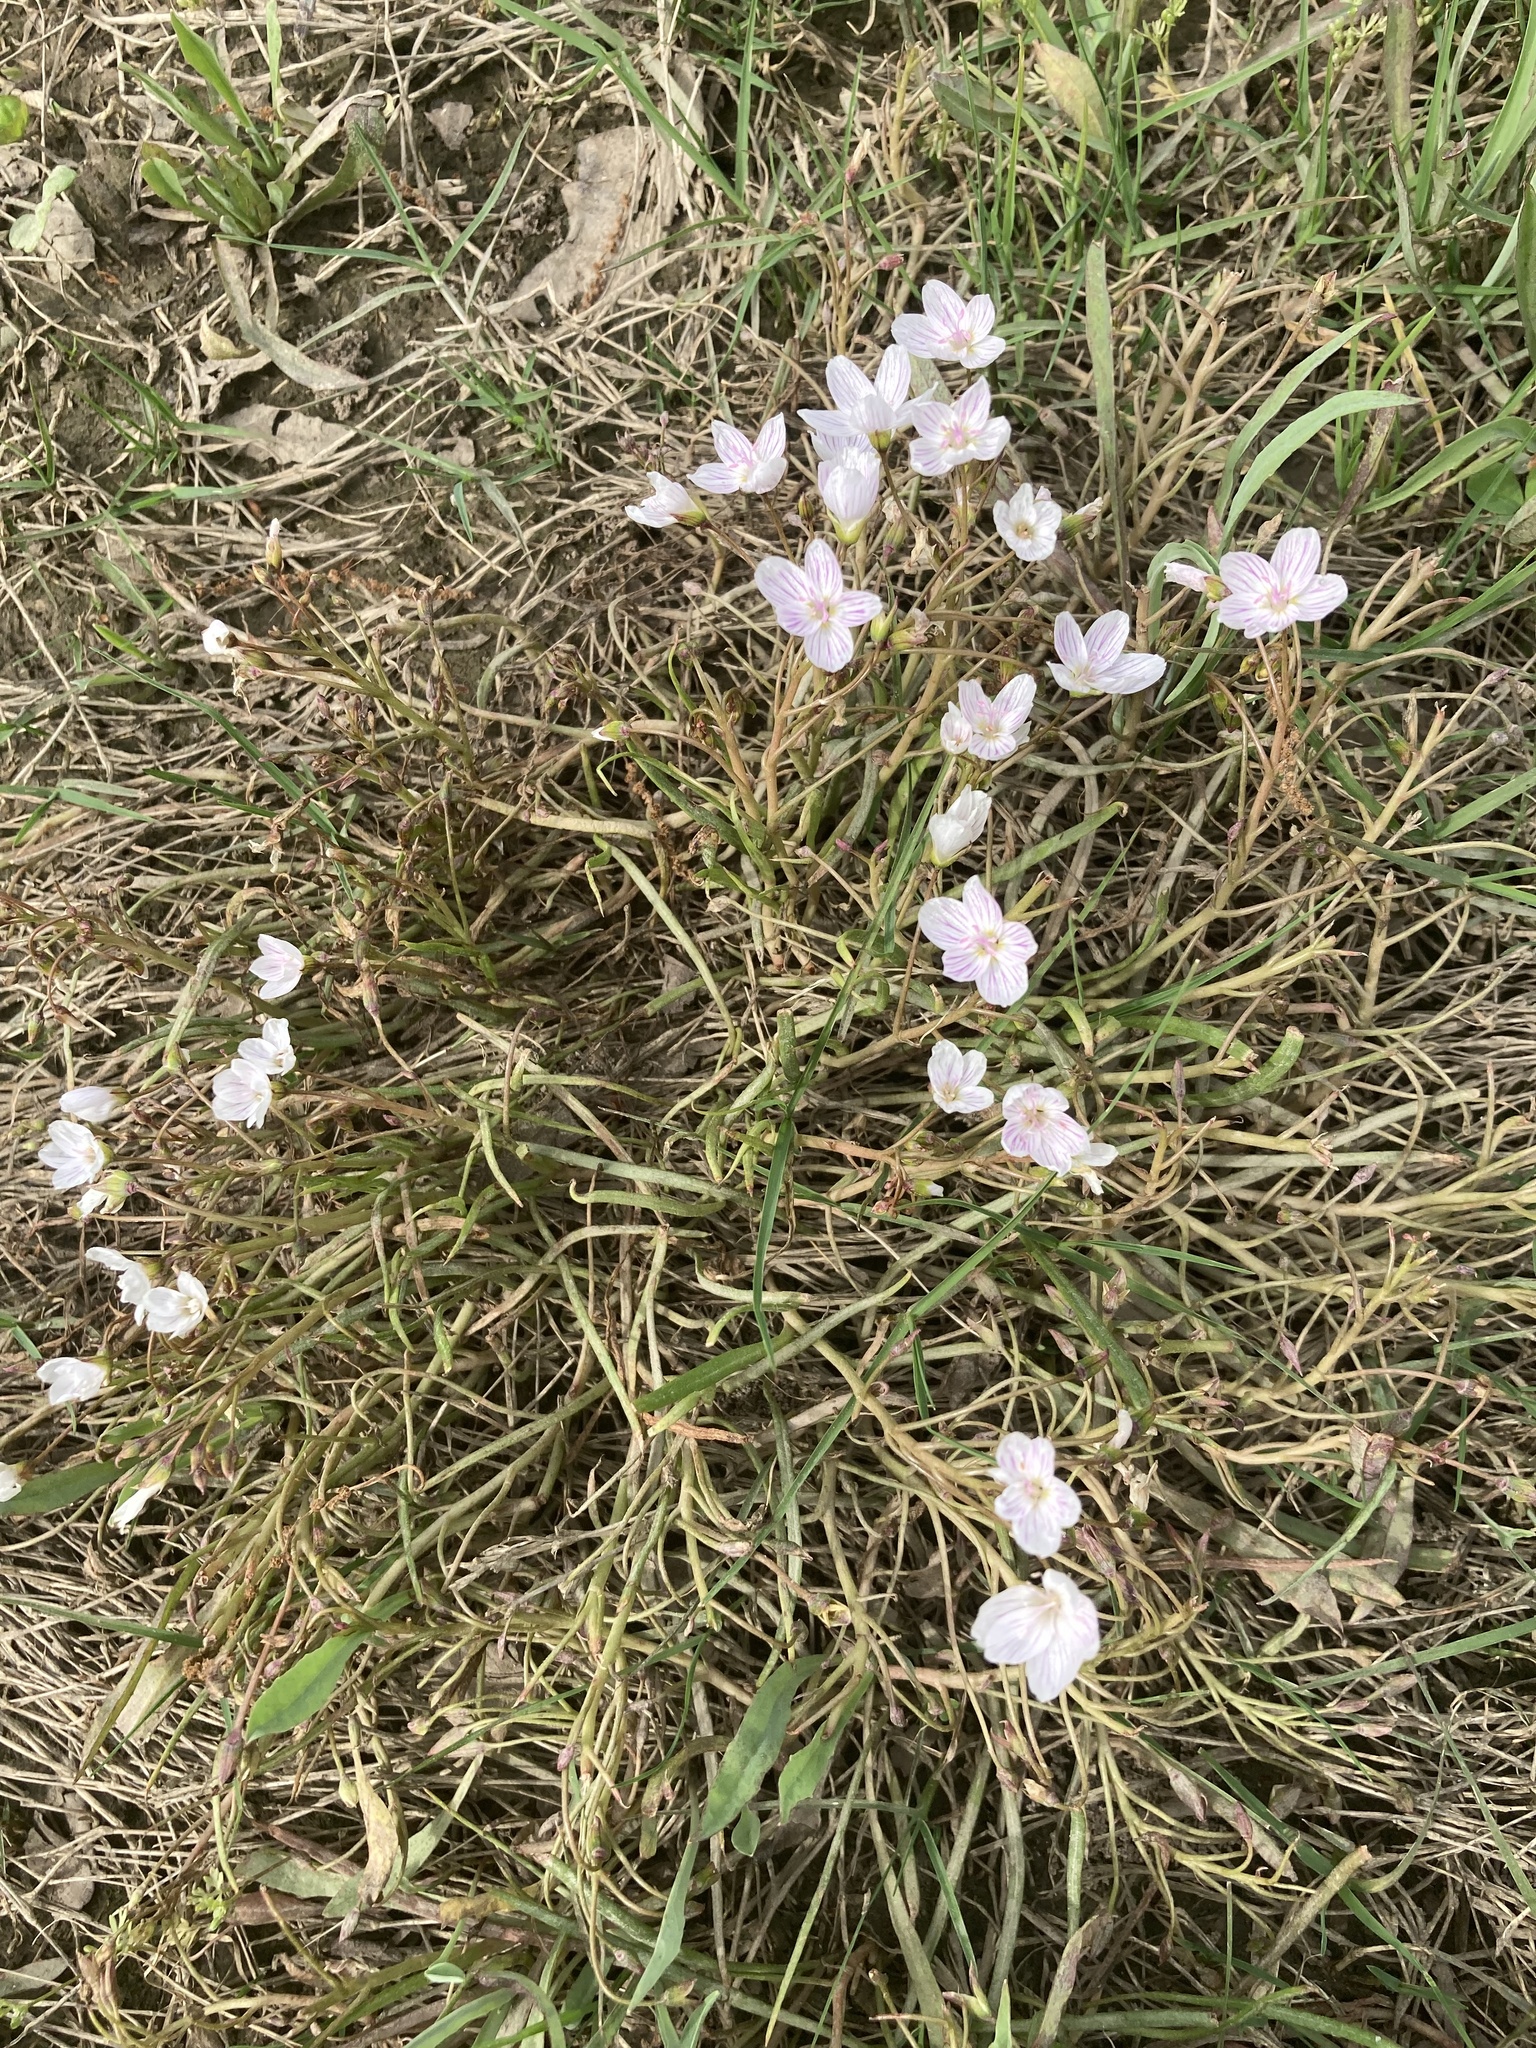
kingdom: Plantae
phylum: Tracheophyta
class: Magnoliopsida
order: Caryophyllales
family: Montiaceae
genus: Claytonia
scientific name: Claytonia virginica
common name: Virginia springbeauty
